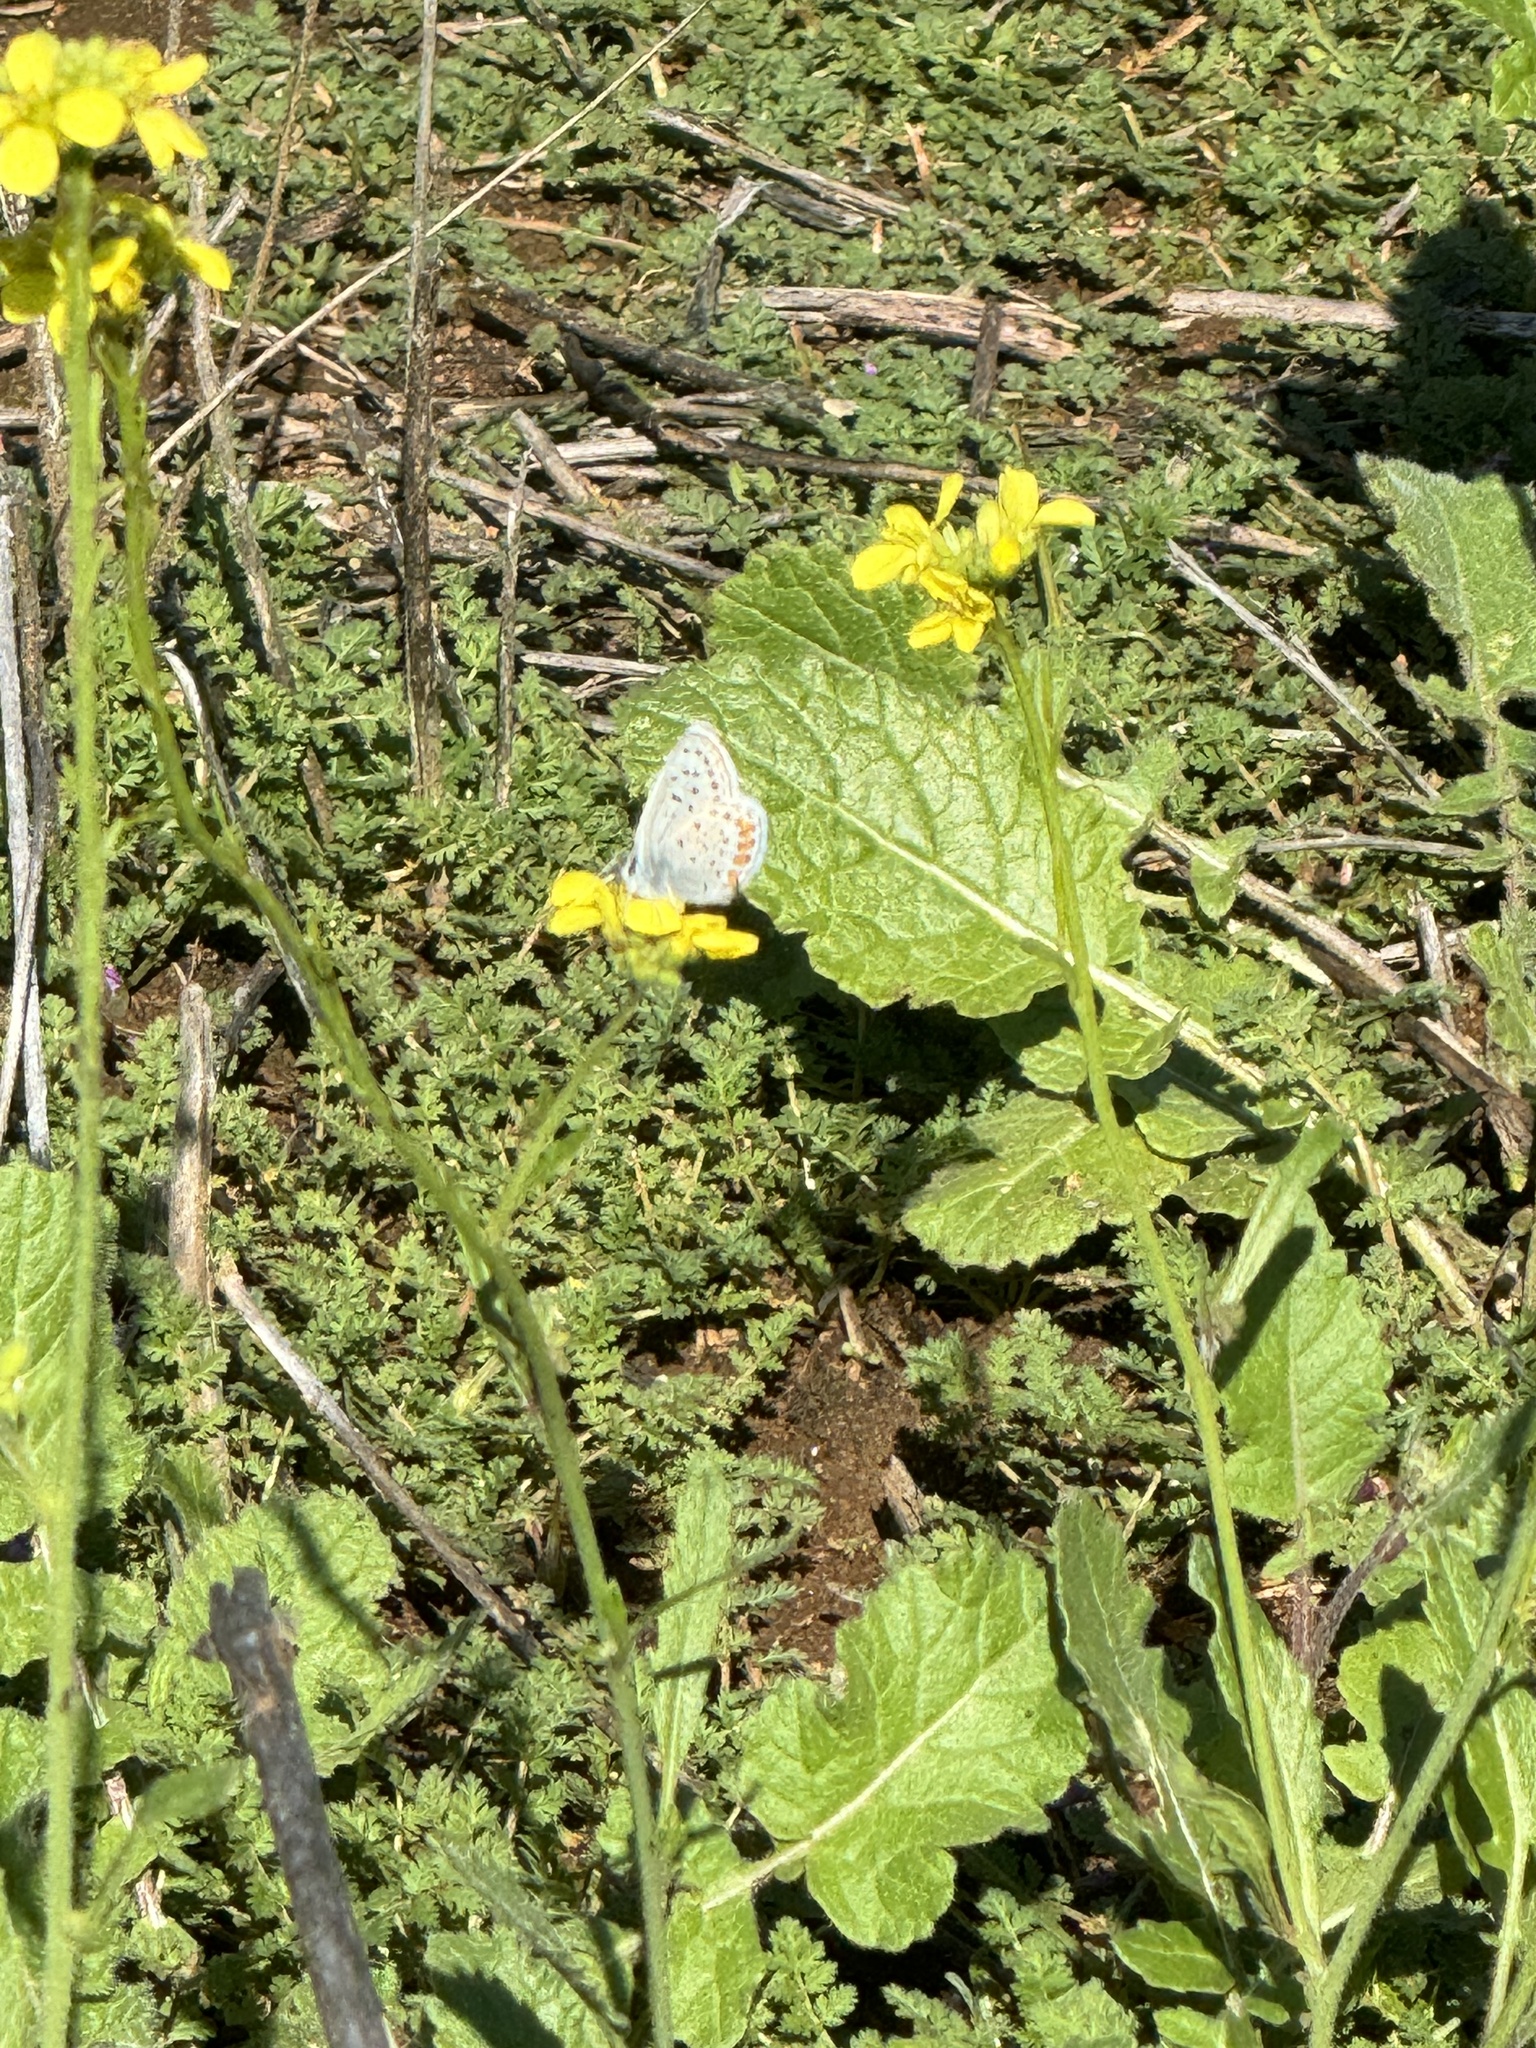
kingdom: Animalia
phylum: Arthropoda
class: Insecta
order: Lepidoptera
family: Lycaenidae
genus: Icaricia
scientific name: Icaricia acmon
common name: Acmon blue
